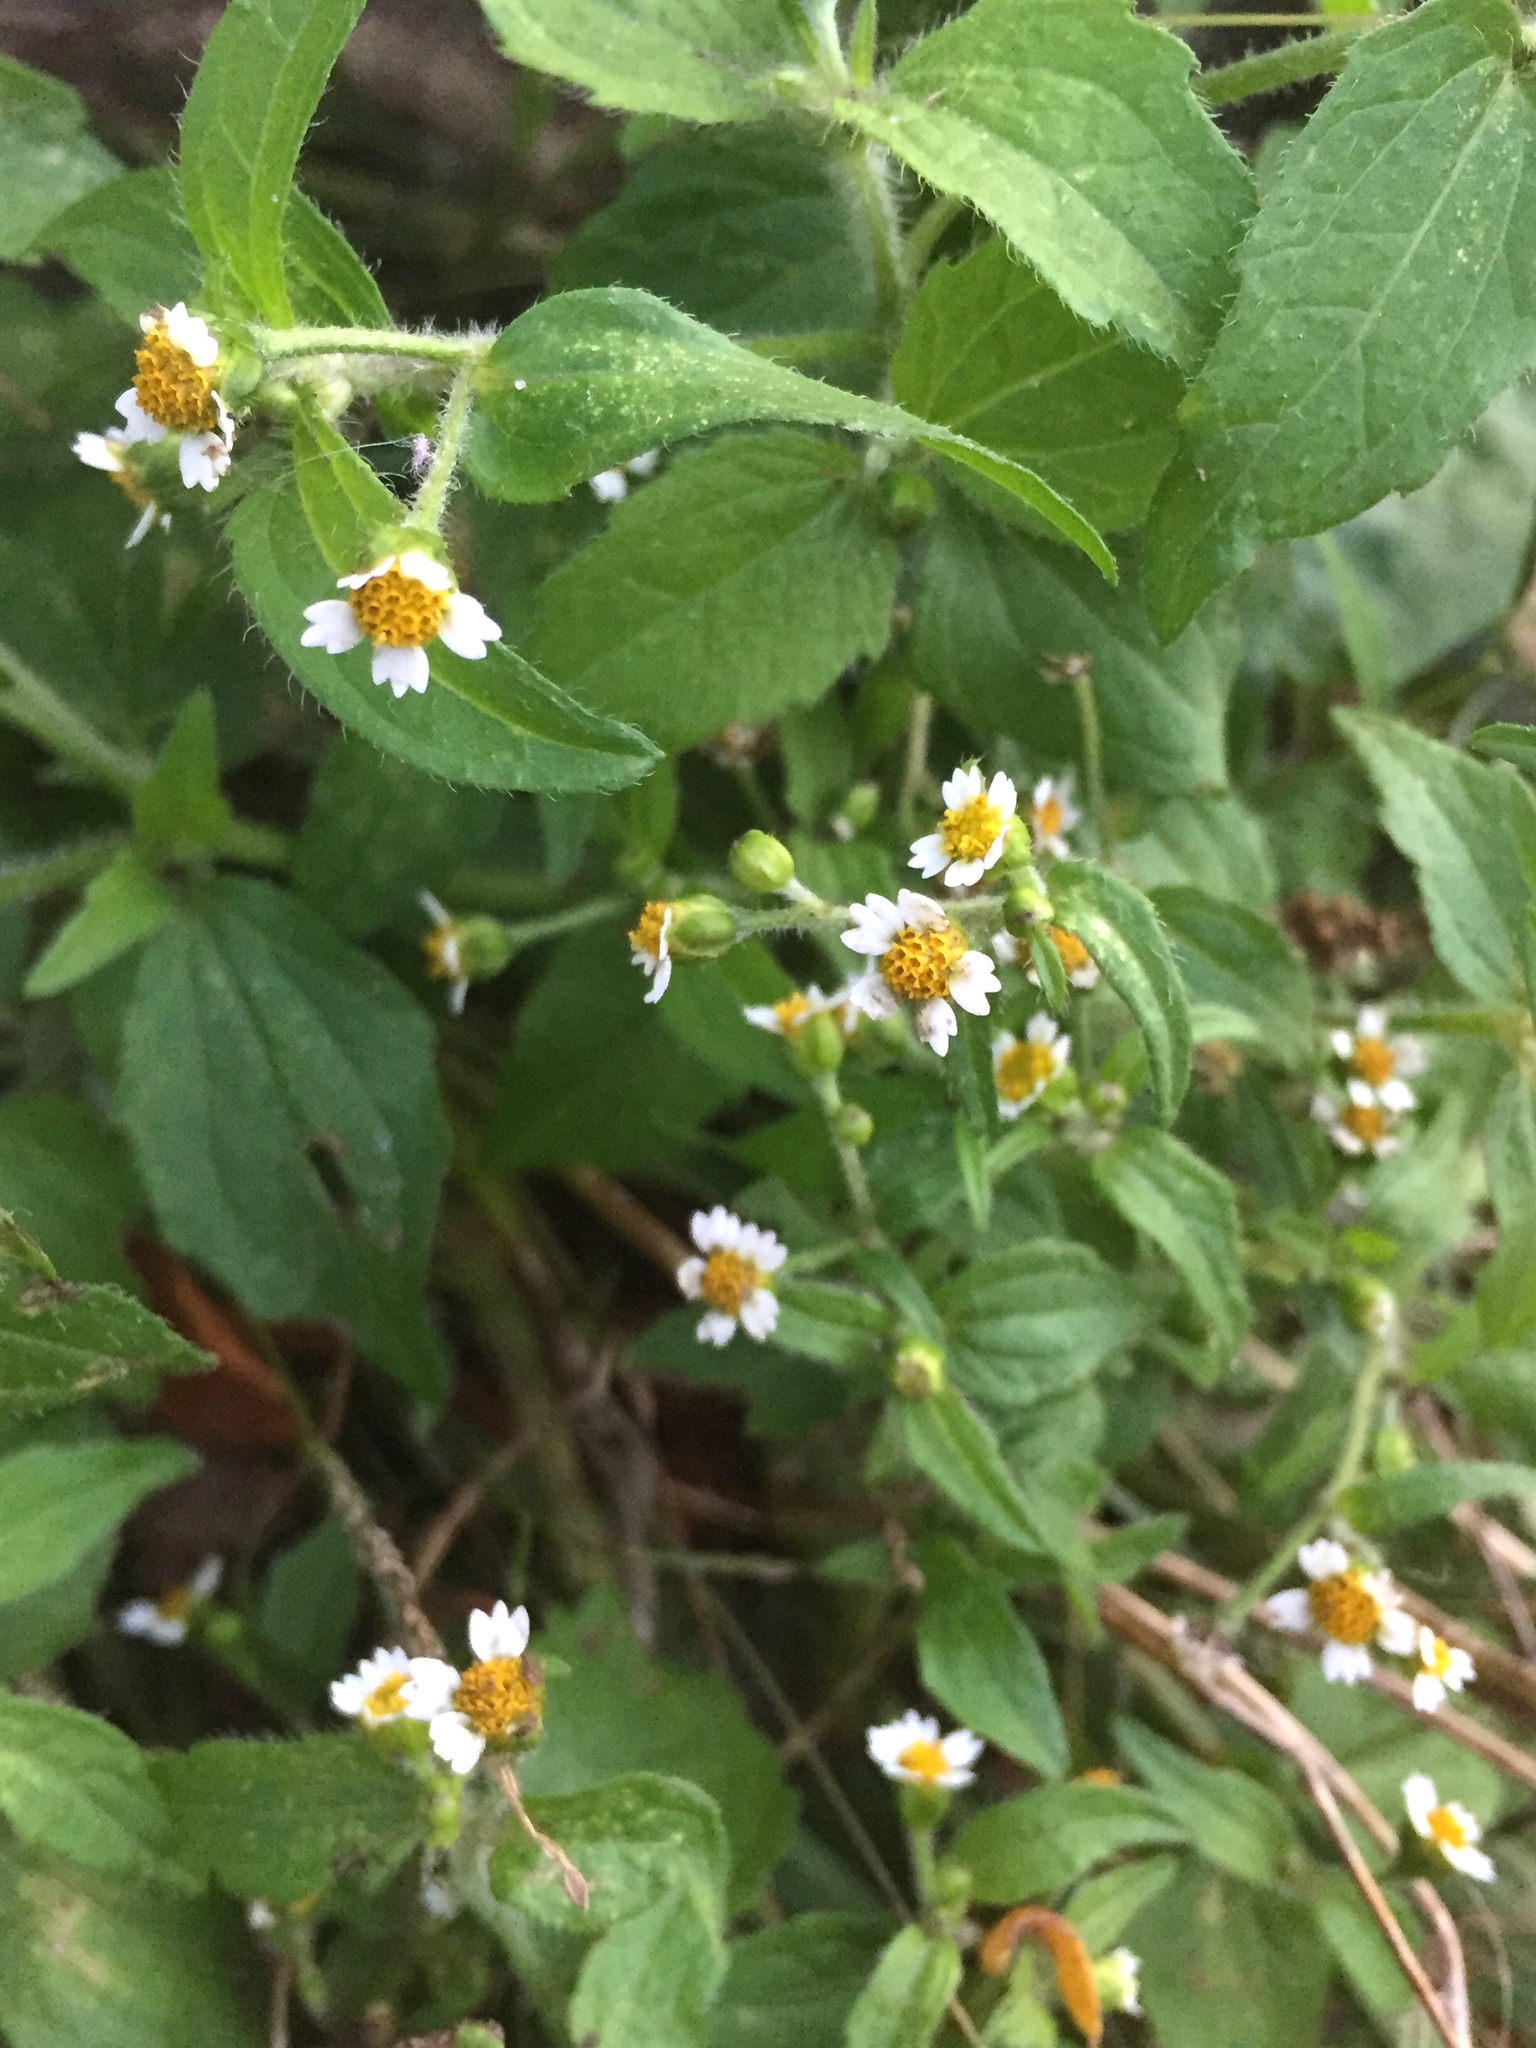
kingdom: Plantae
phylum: Tracheophyta
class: Magnoliopsida
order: Asterales
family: Asteraceae
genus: Galinsoga
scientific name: Galinsoga quadriradiata
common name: Shaggy soldier
